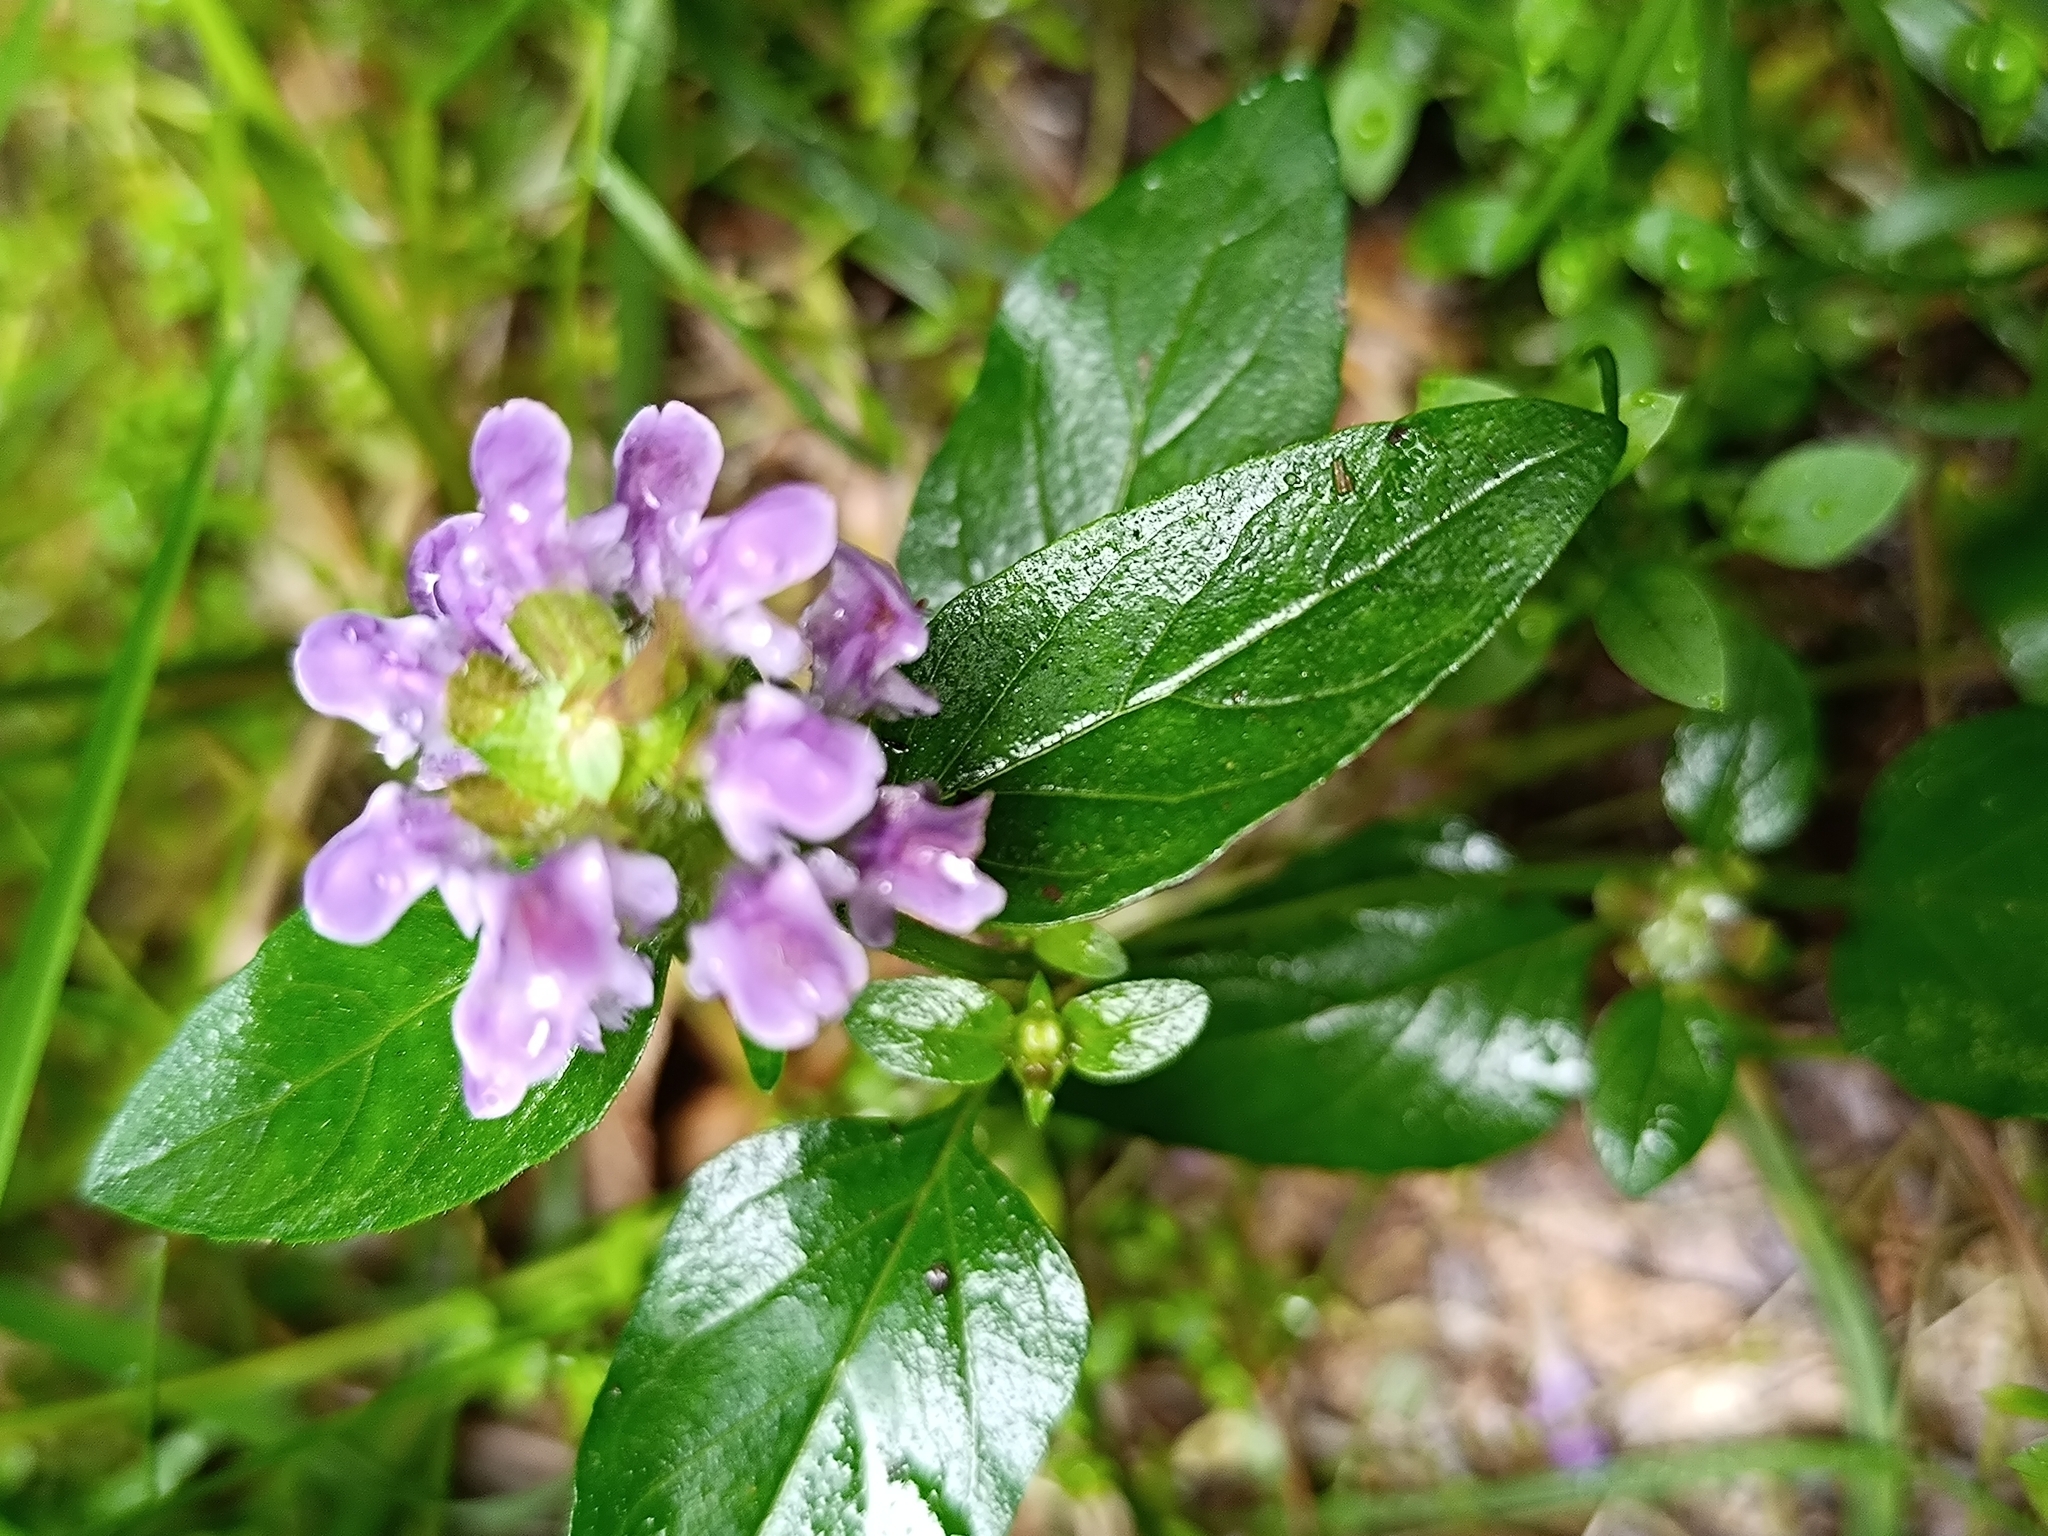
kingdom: Plantae
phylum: Tracheophyta
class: Magnoliopsida
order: Lamiales
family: Lamiaceae
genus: Prunella
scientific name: Prunella vulgaris
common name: Heal-all
